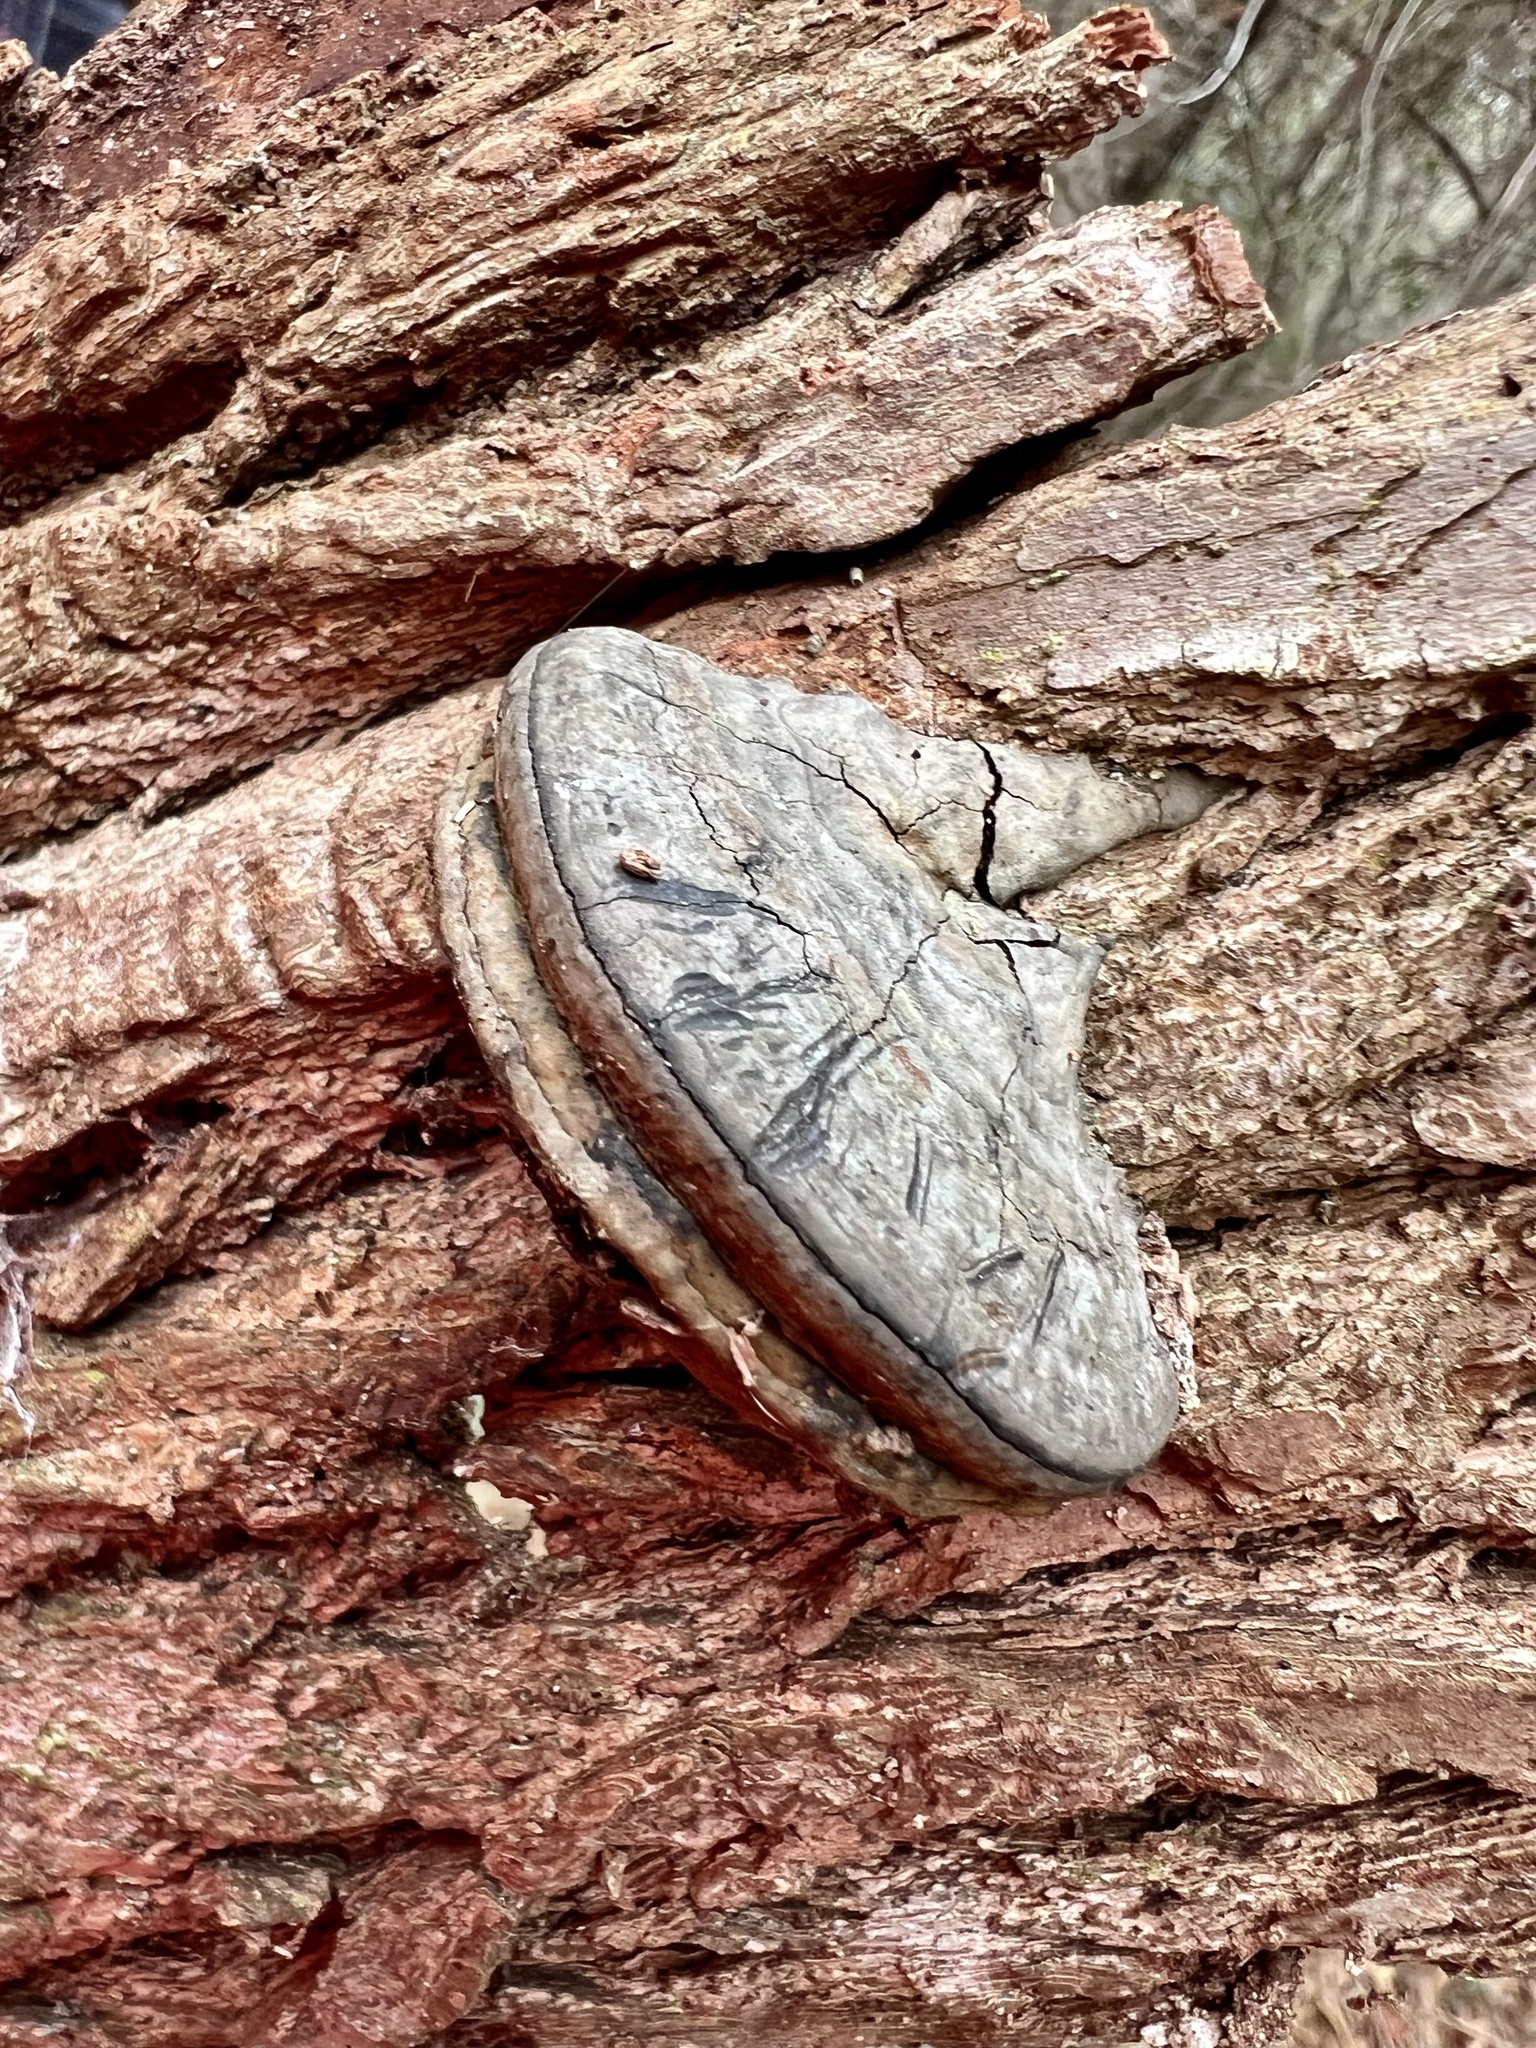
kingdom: Fungi
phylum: Basidiomycota
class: Agaricomycetes
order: Polyporales
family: Polyporaceae
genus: Fomes
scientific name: Fomes fasciatus
